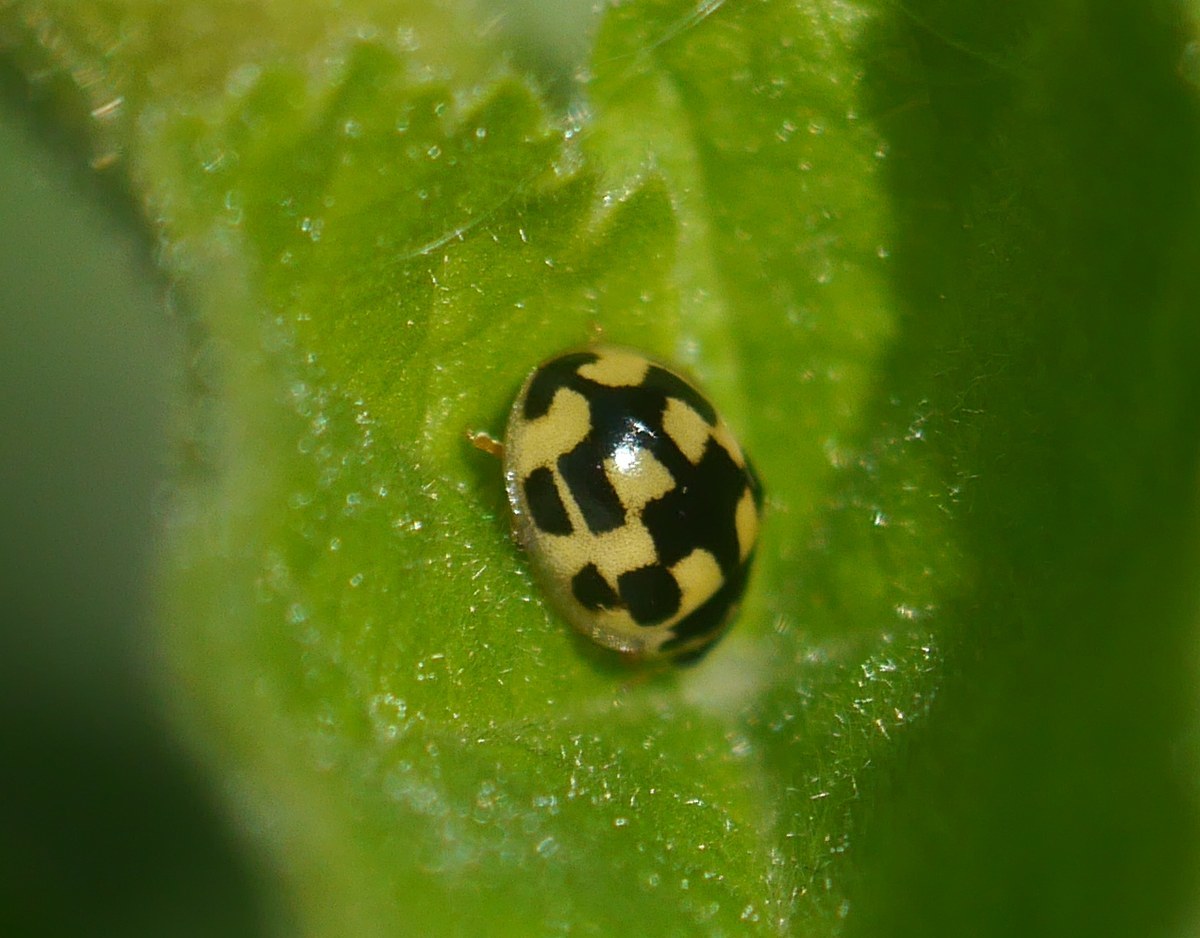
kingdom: Animalia
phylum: Arthropoda
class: Insecta
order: Coleoptera
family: Coccinellidae
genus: Propylaea
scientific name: Propylaea quatuordecimpunctata
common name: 14-spotted ladybird beetle
